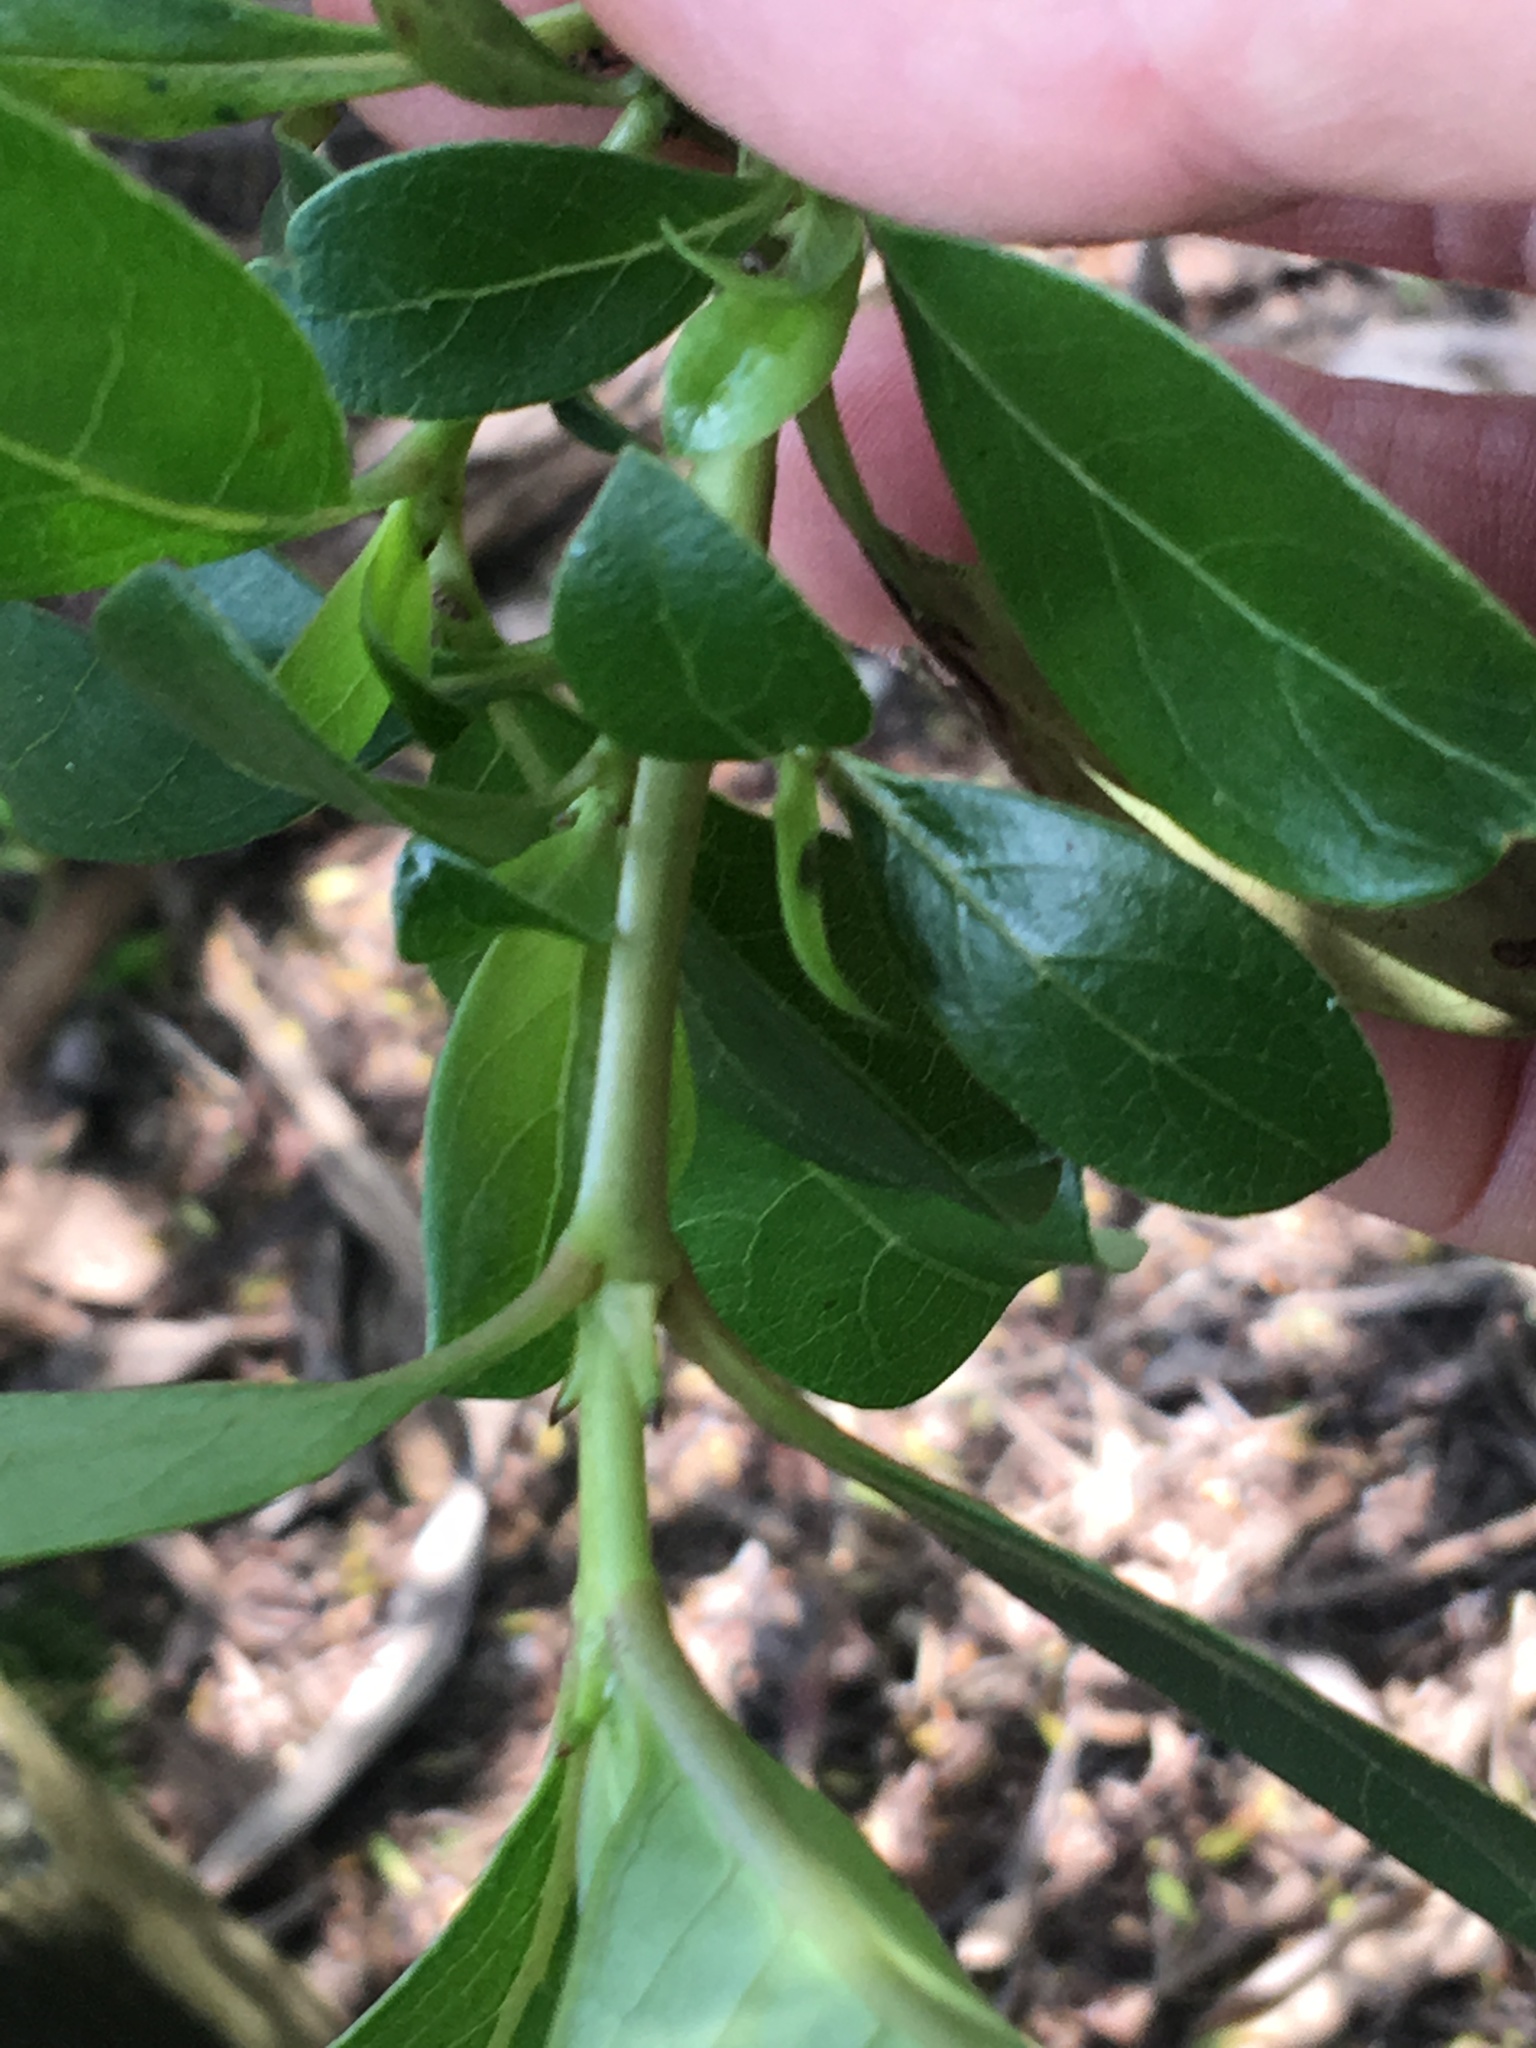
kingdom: Plantae
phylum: Tracheophyta
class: Magnoliopsida
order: Gentianales
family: Rubiaceae
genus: Coprosma
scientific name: Coprosma robusta
